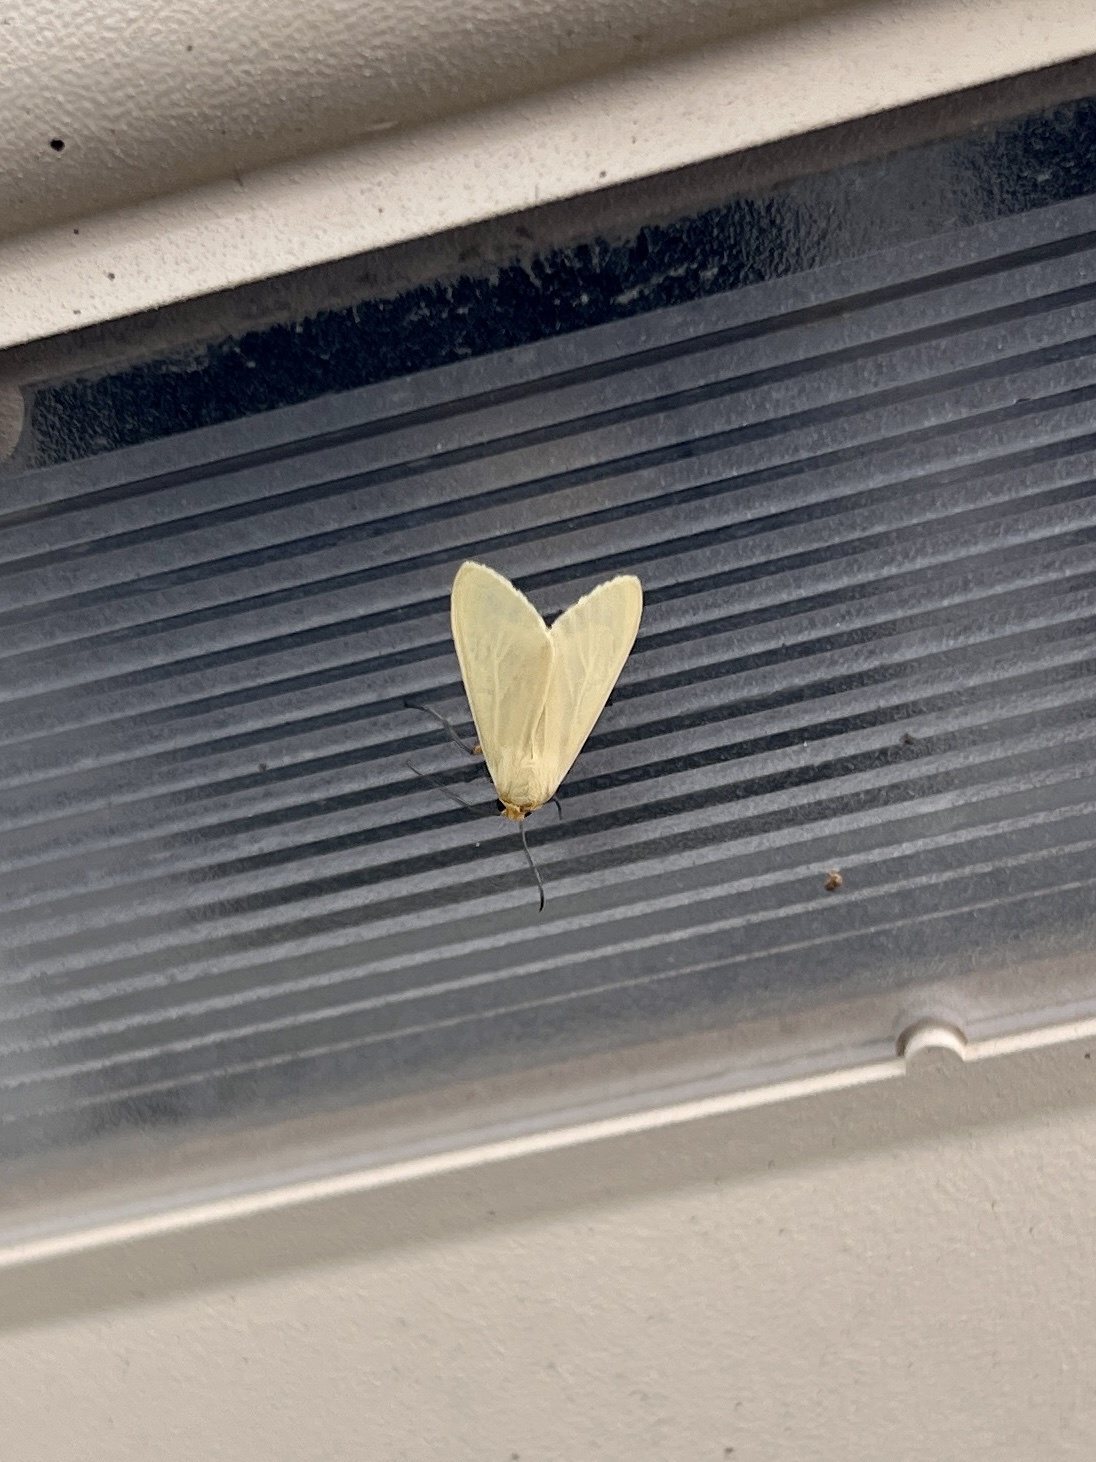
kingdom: Animalia
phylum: Arthropoda
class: Insecta
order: Lepidoptera
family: Erebidae
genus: Pareuchaetes
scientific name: Pareuchaetes insulata
